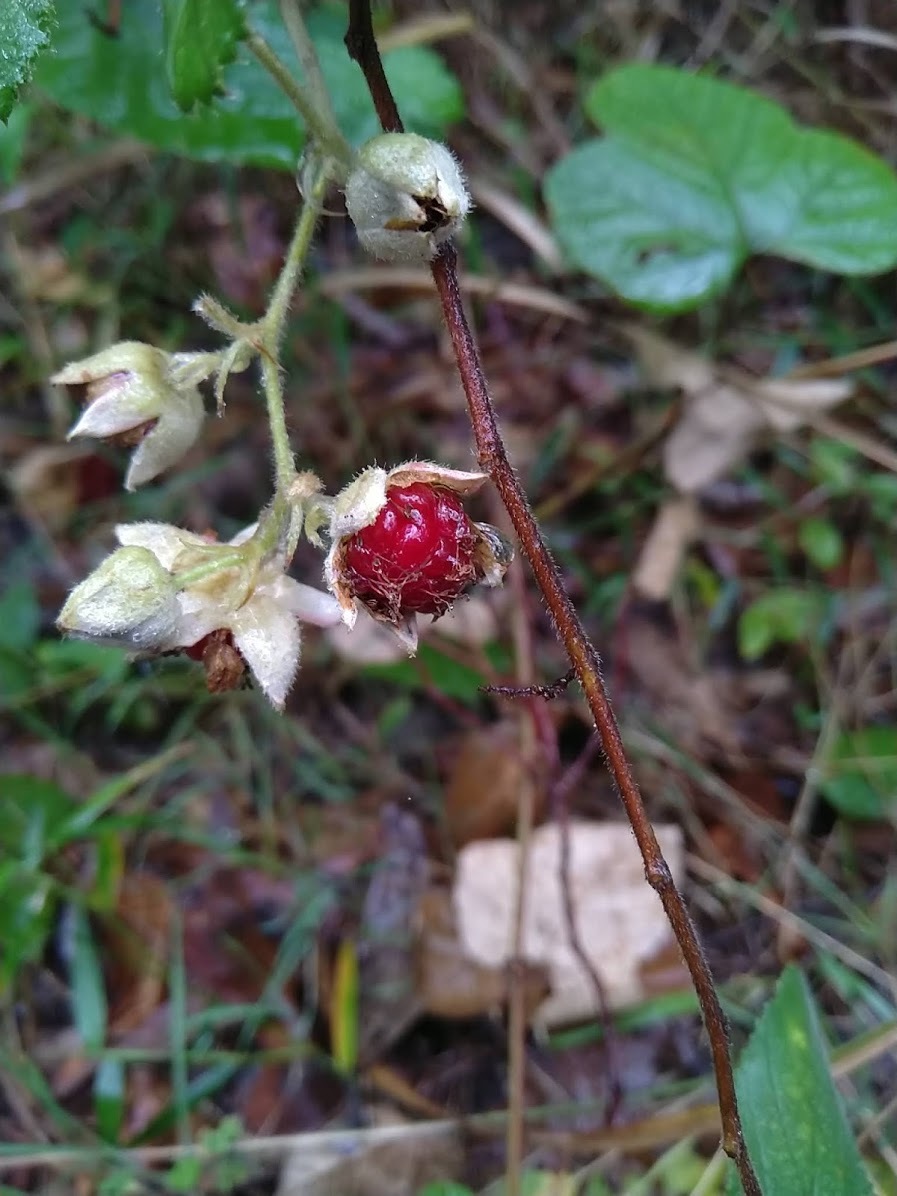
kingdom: Plantae
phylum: Tracheophyta
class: Magnoliopsida
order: Rosales
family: Rosaceae
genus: Rubus
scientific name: Rubus moluccanus
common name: Wild raspberry
